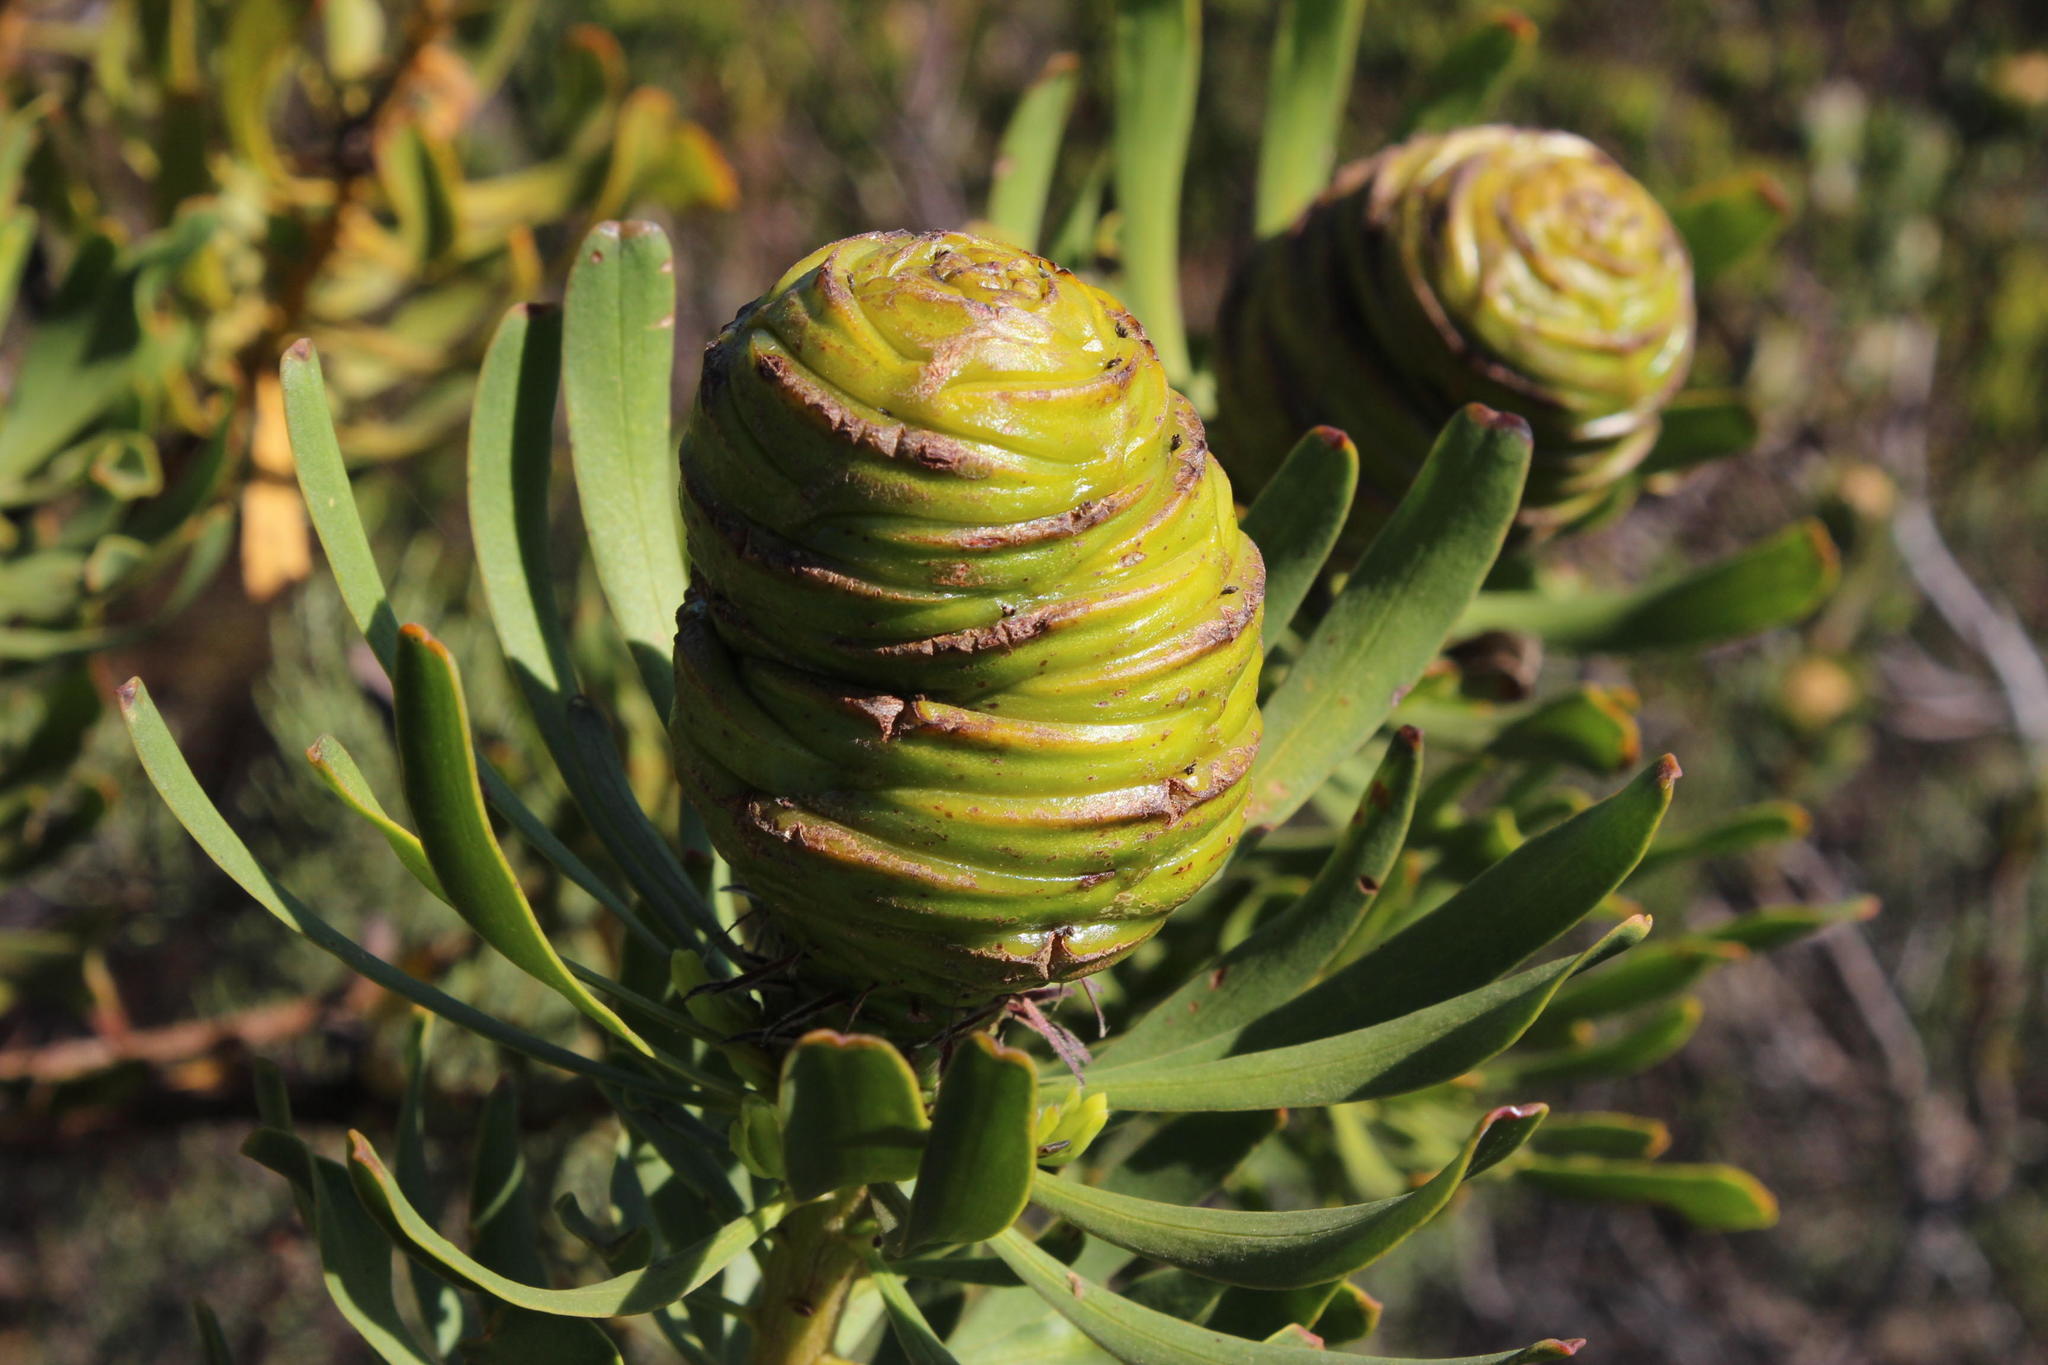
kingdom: Plantae
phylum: Tracheophyta
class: Magnoliopsida
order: Proteales
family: Proteaceae
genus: Leucadendron
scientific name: Leucadendron platyspermum
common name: Plate-seed conebush
